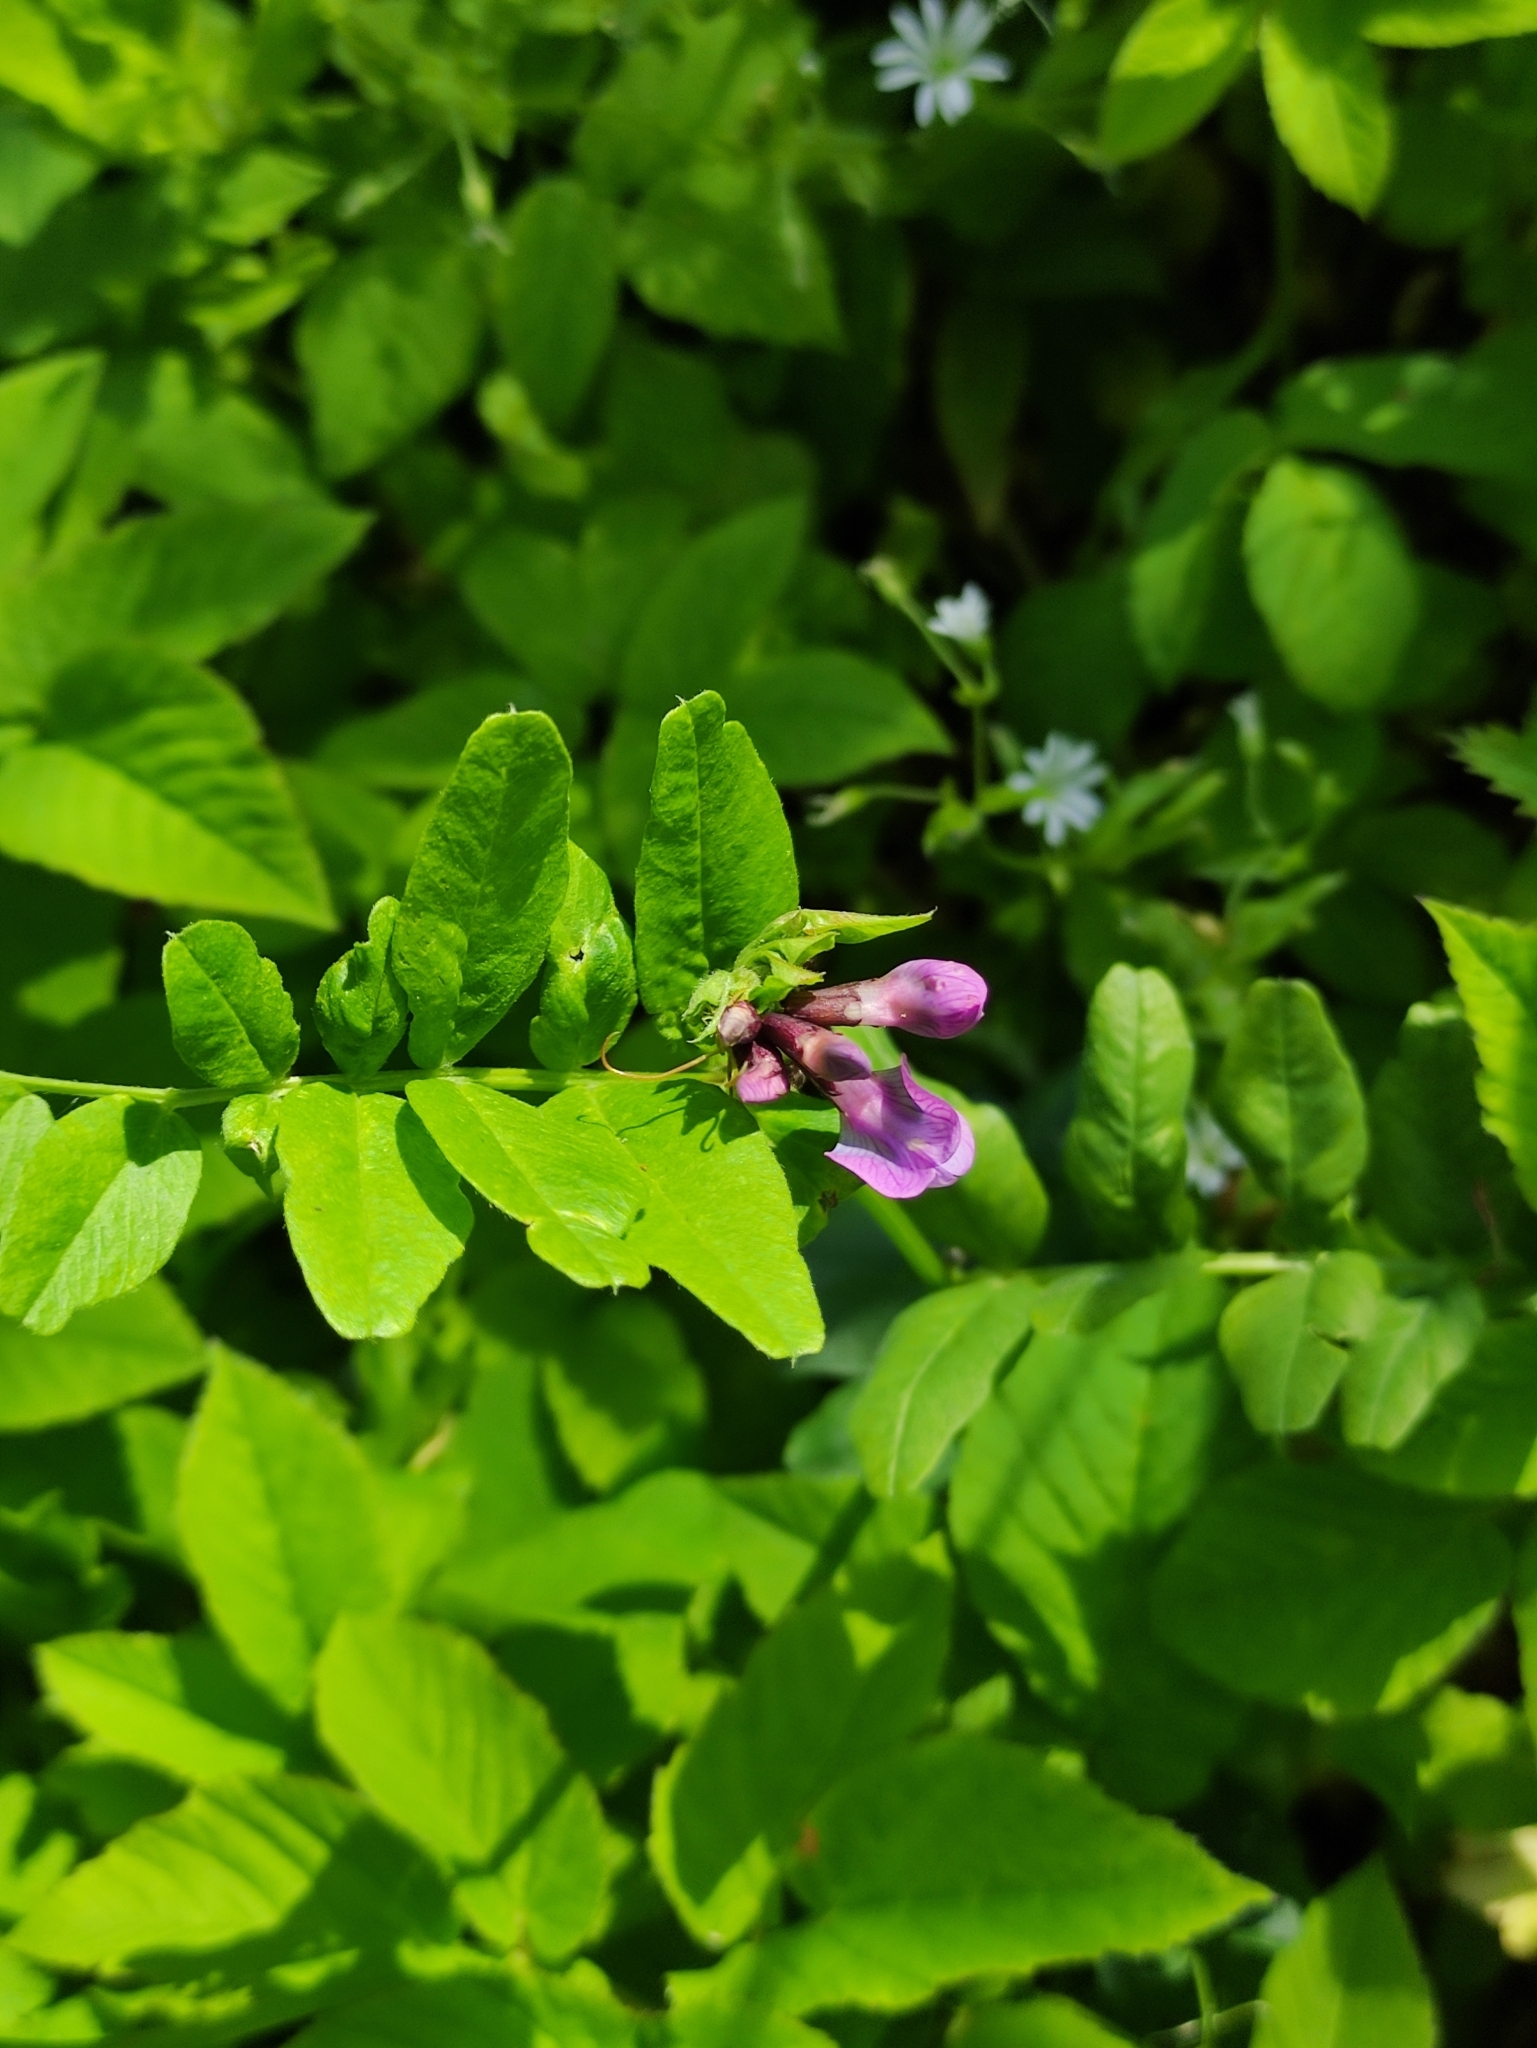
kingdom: Plantae
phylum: Tracheophyta
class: Magnoliopsida
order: Fabales
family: Fabaceae
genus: Vicia
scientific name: Vicia sepium
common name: Bush vetch
